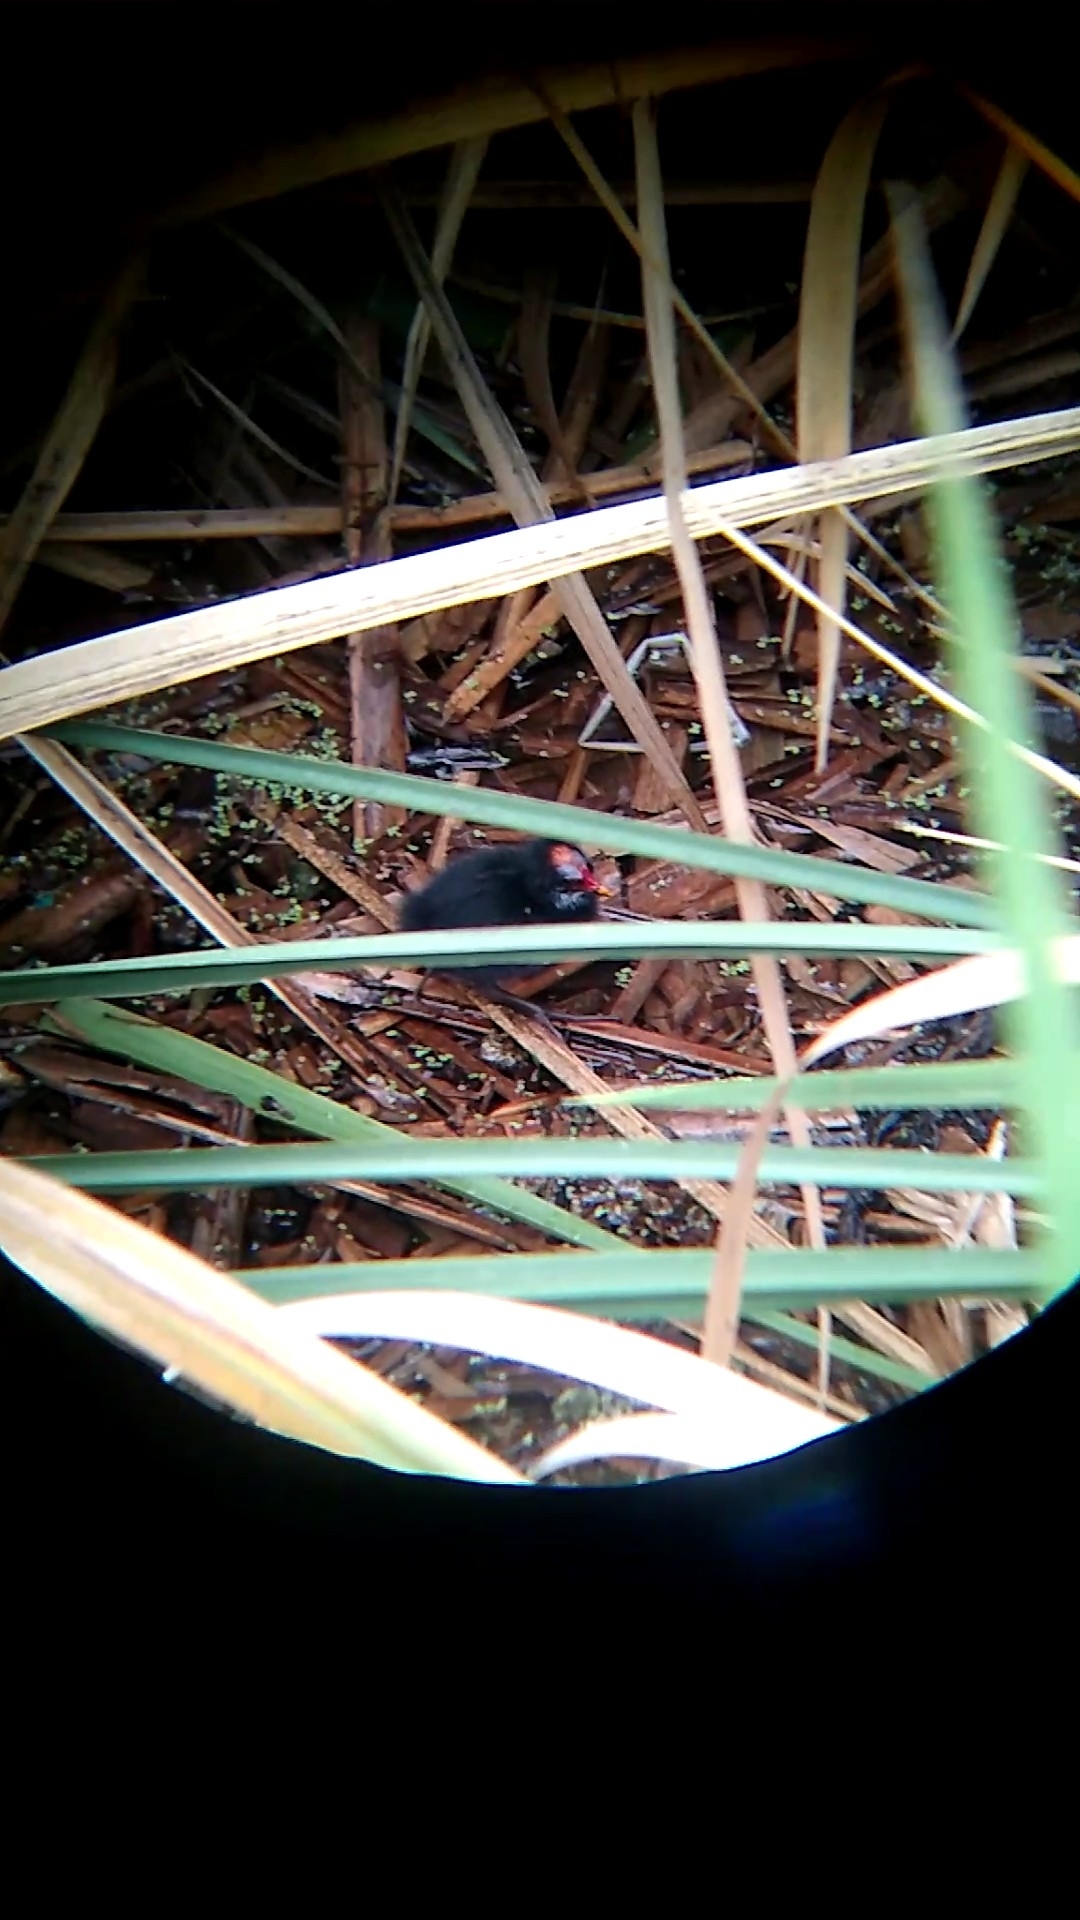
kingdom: Animalia
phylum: Chordata
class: Aves
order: Gruiformes
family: Rallidae
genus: Gallinula
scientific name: Gallinula chloropus
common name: Common moorhen
